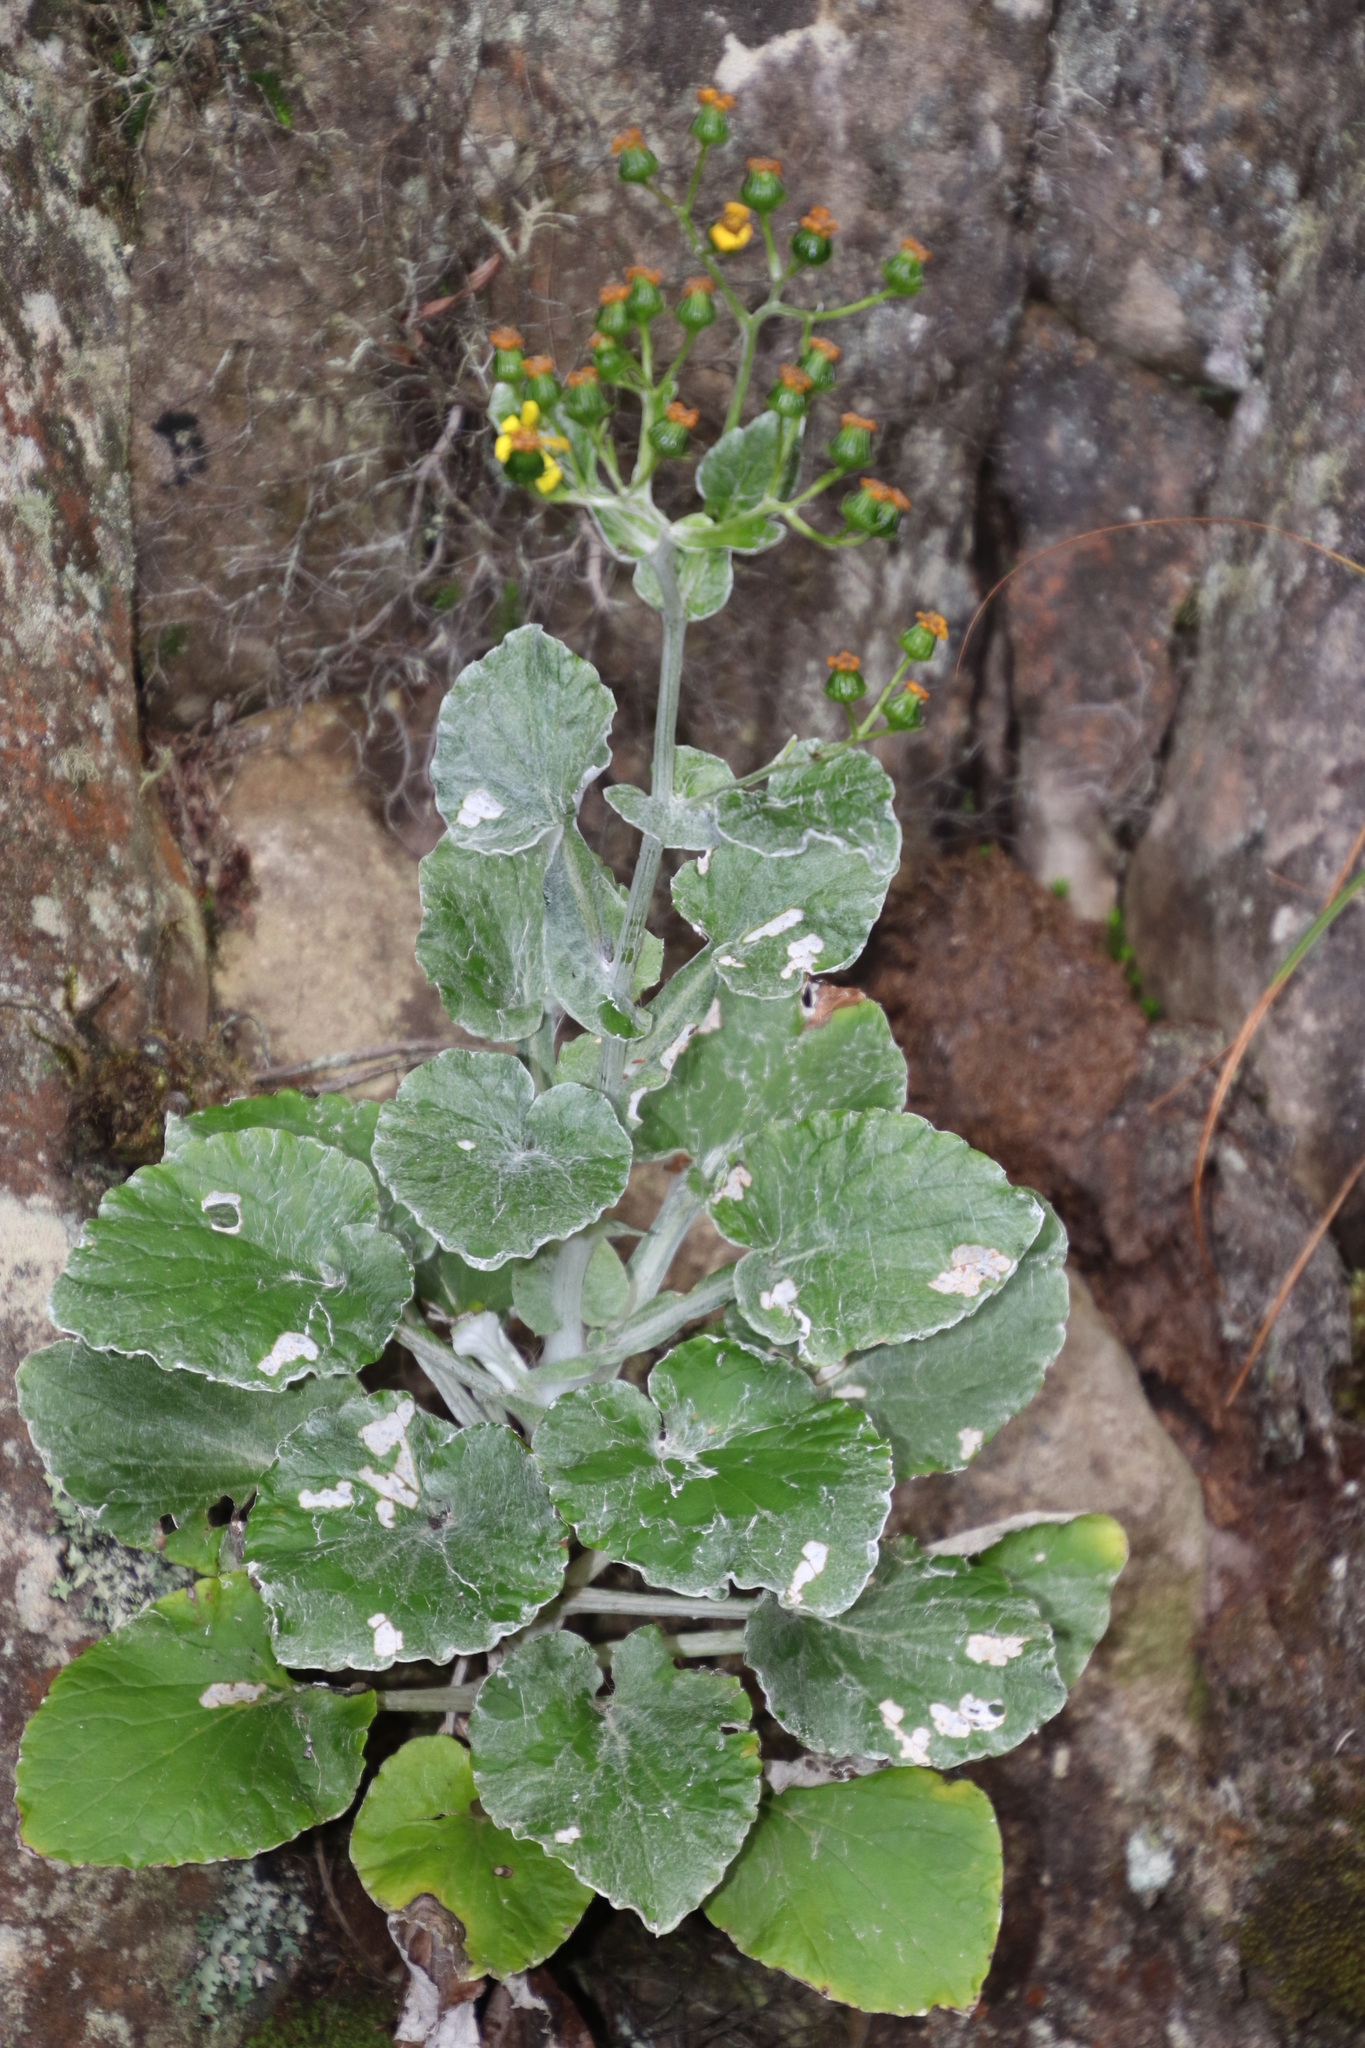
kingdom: Plantae
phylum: Tracheophyta
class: Magnoliopsida
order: Asterales
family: Asteraceae
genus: Senecio
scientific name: Senecio verbascifolius
